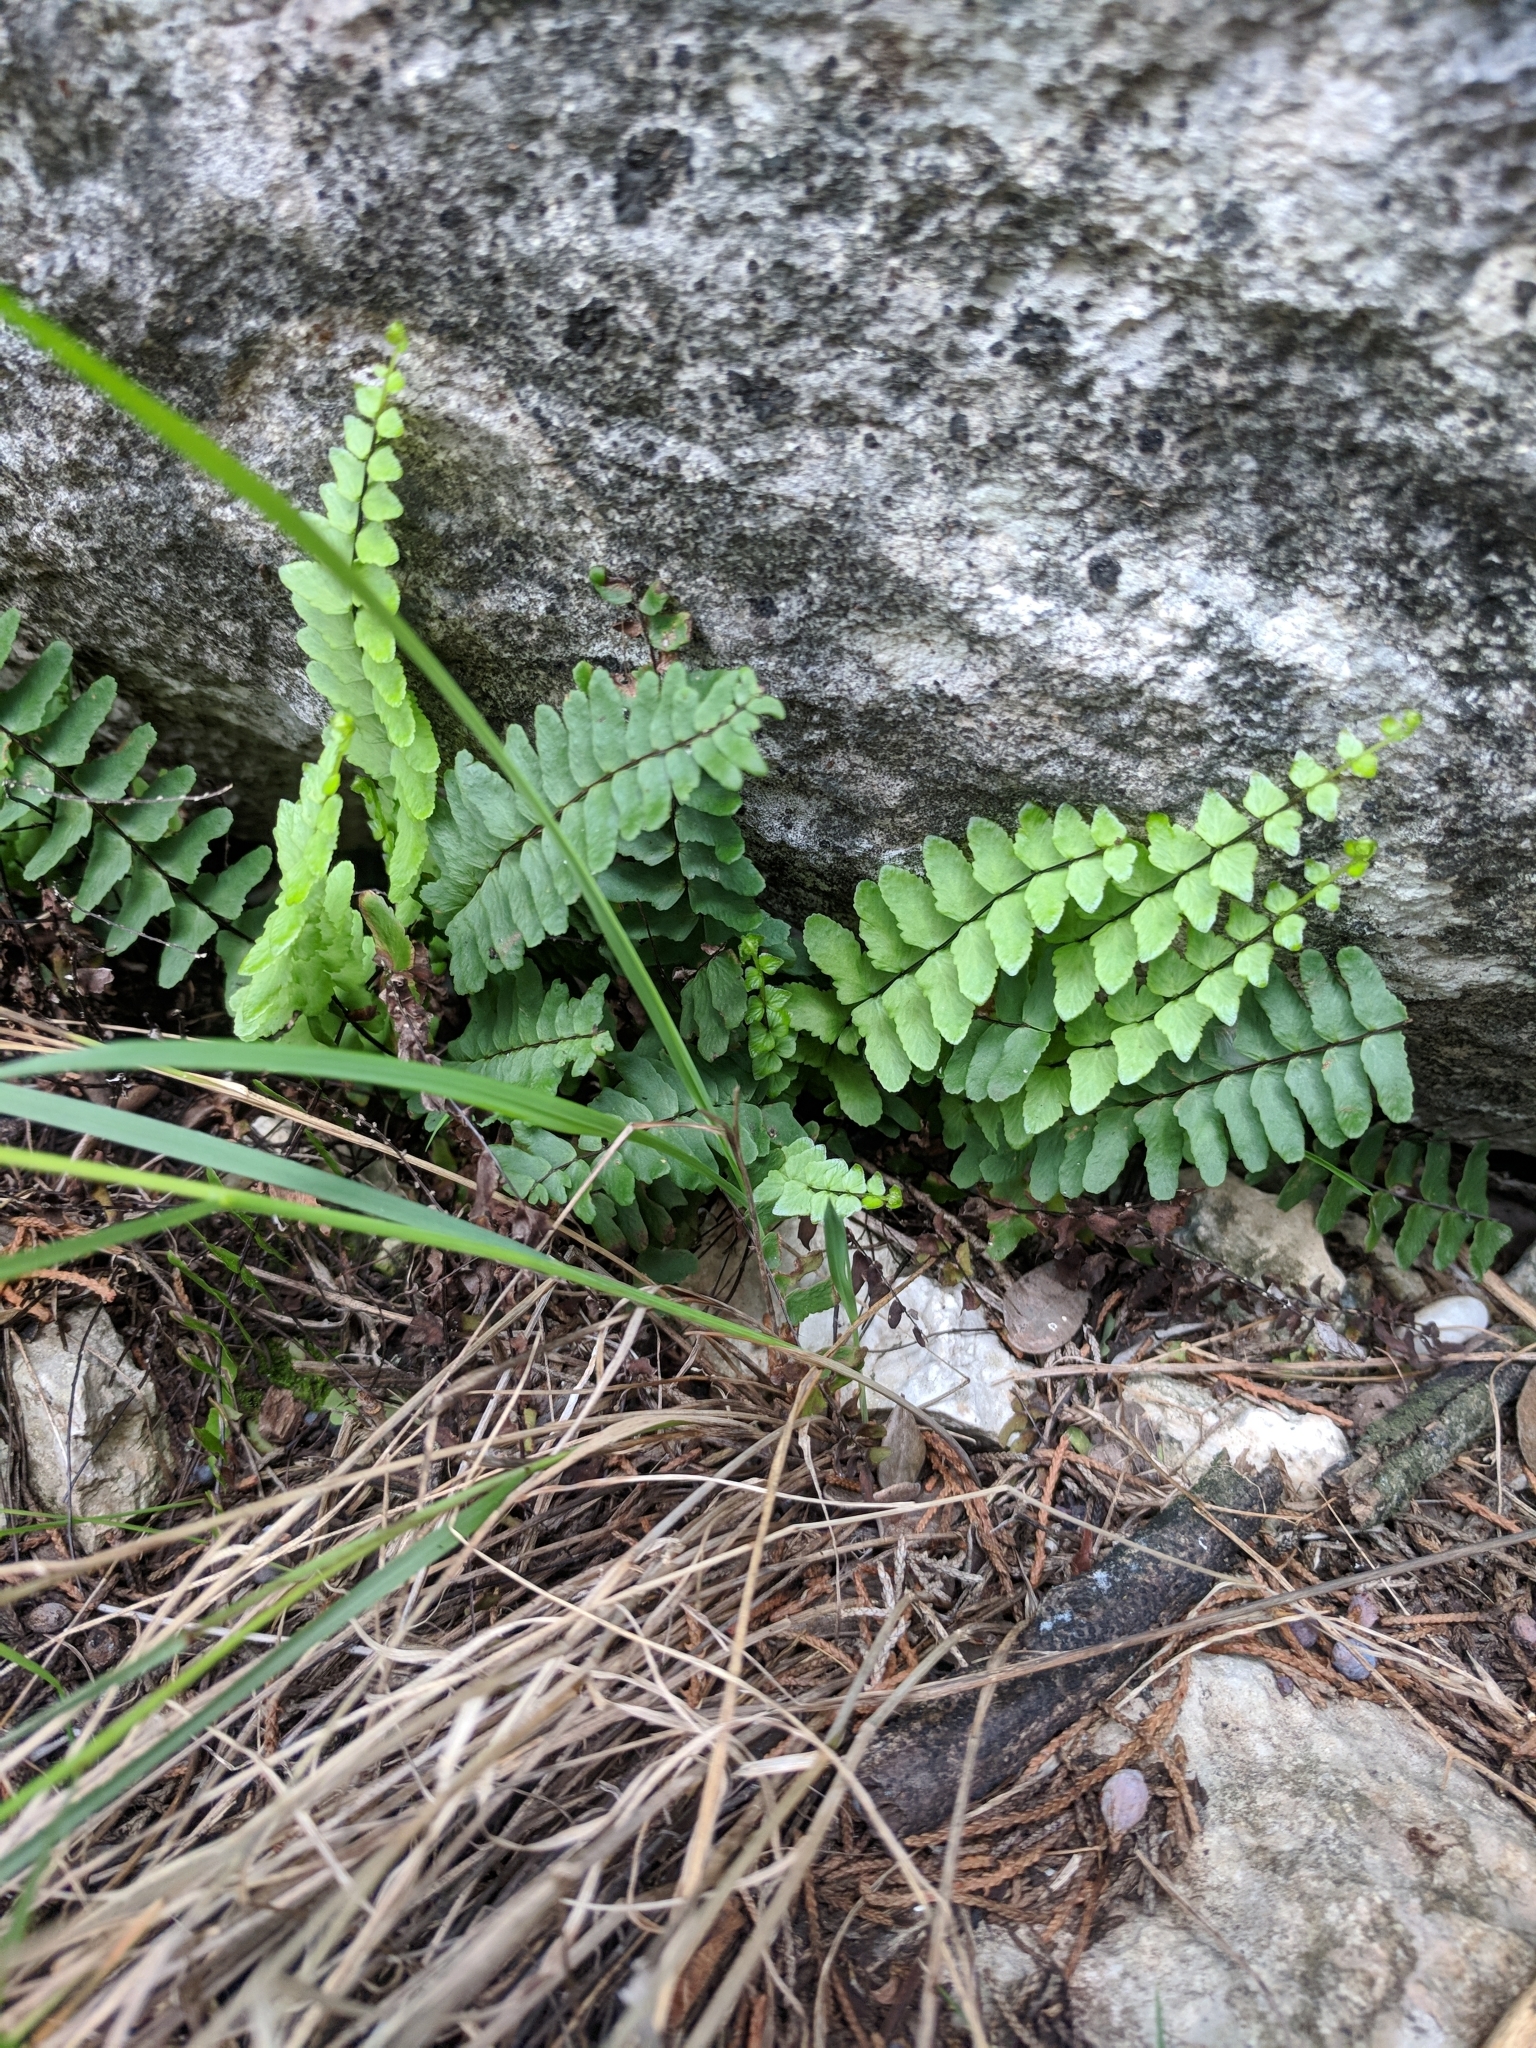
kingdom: Plantae
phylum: Tracheophyta
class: Polypodiopsida
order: Polypodiales
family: Aspleniaceae
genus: Asplenium
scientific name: Asplenium resiliens
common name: Blackstem spleenwort
